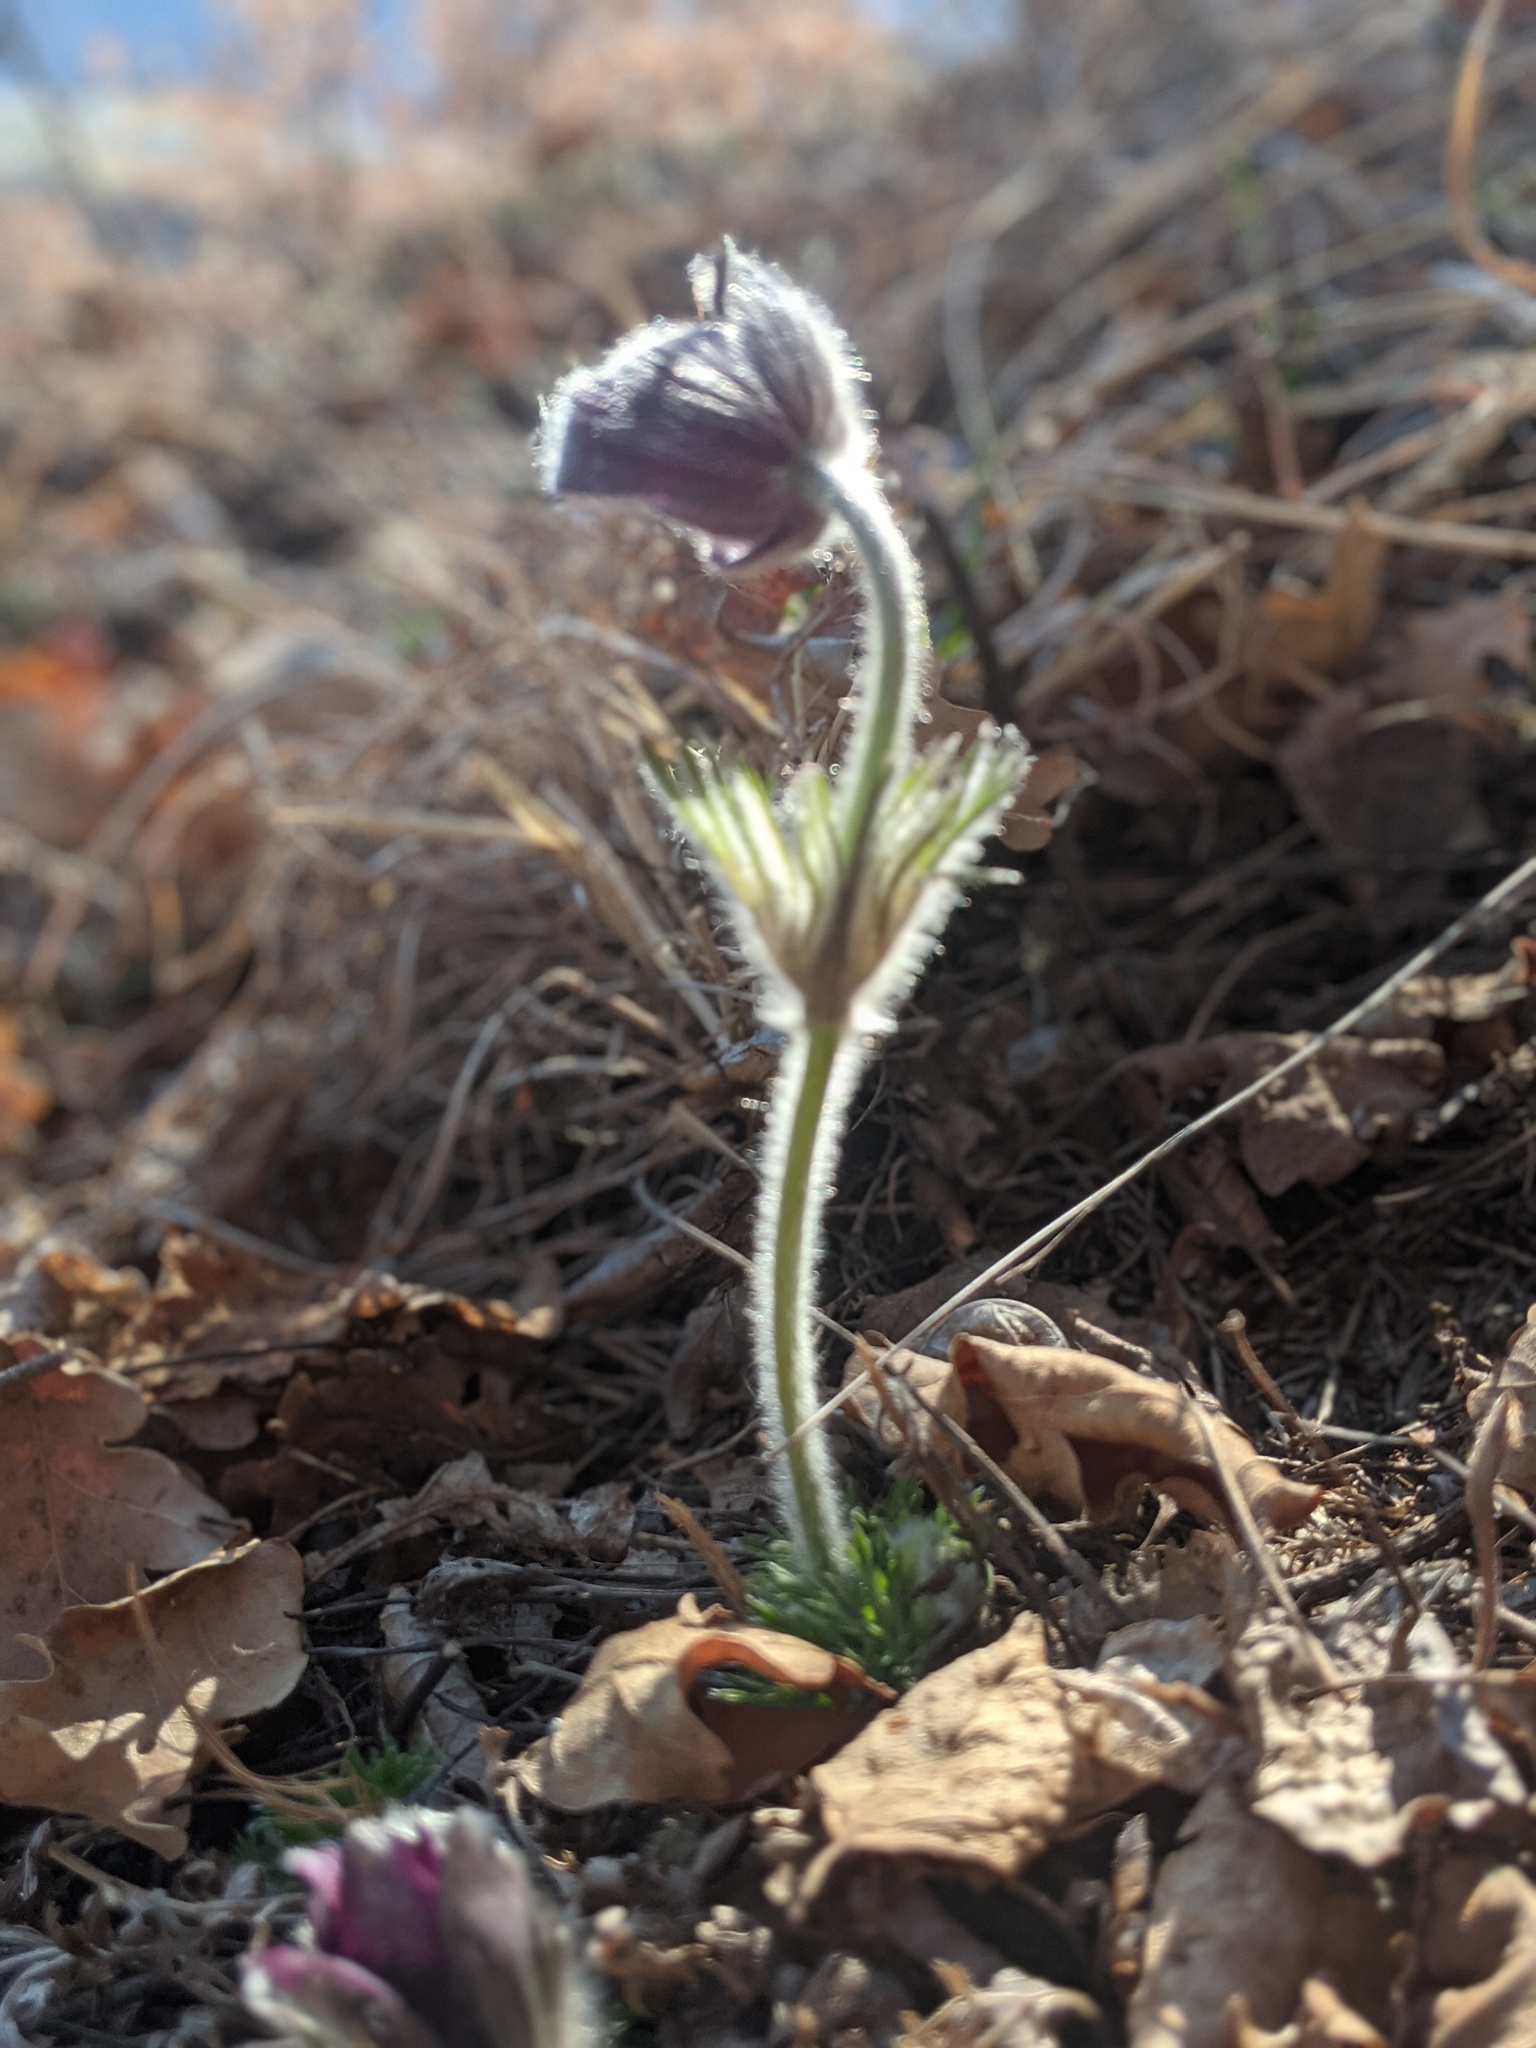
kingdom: Plantae
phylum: Tracheophyta
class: Magnoliopsida
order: Ranunculales
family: Ranunculaceae
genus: Pulsatilla
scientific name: Pulsatilla montana
